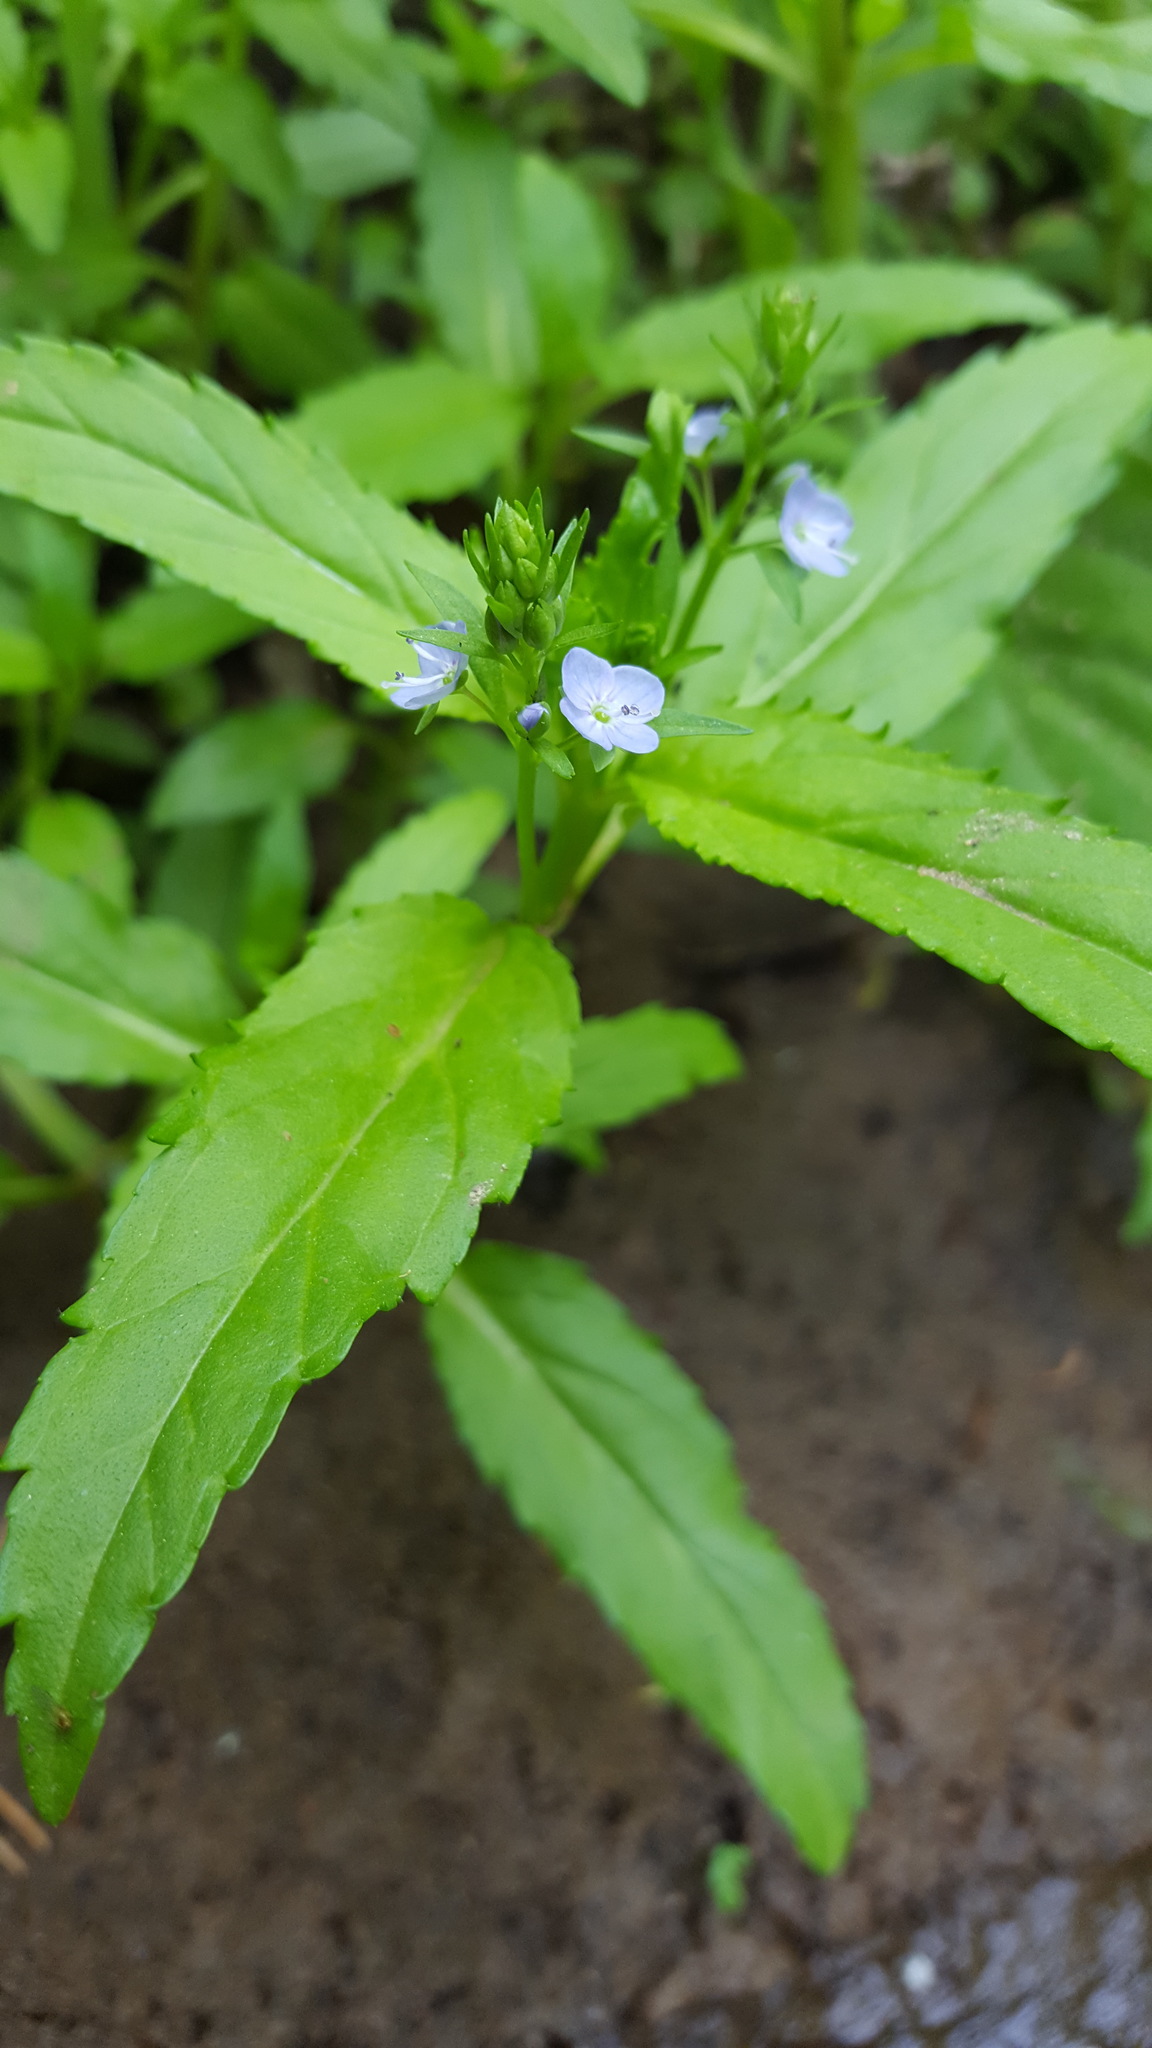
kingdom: Plantae
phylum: Tracheophyta
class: Magnoliopsida
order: Lamiales
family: Plantaginaceae
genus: Veronica
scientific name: Veronica americana
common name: American brooklime
